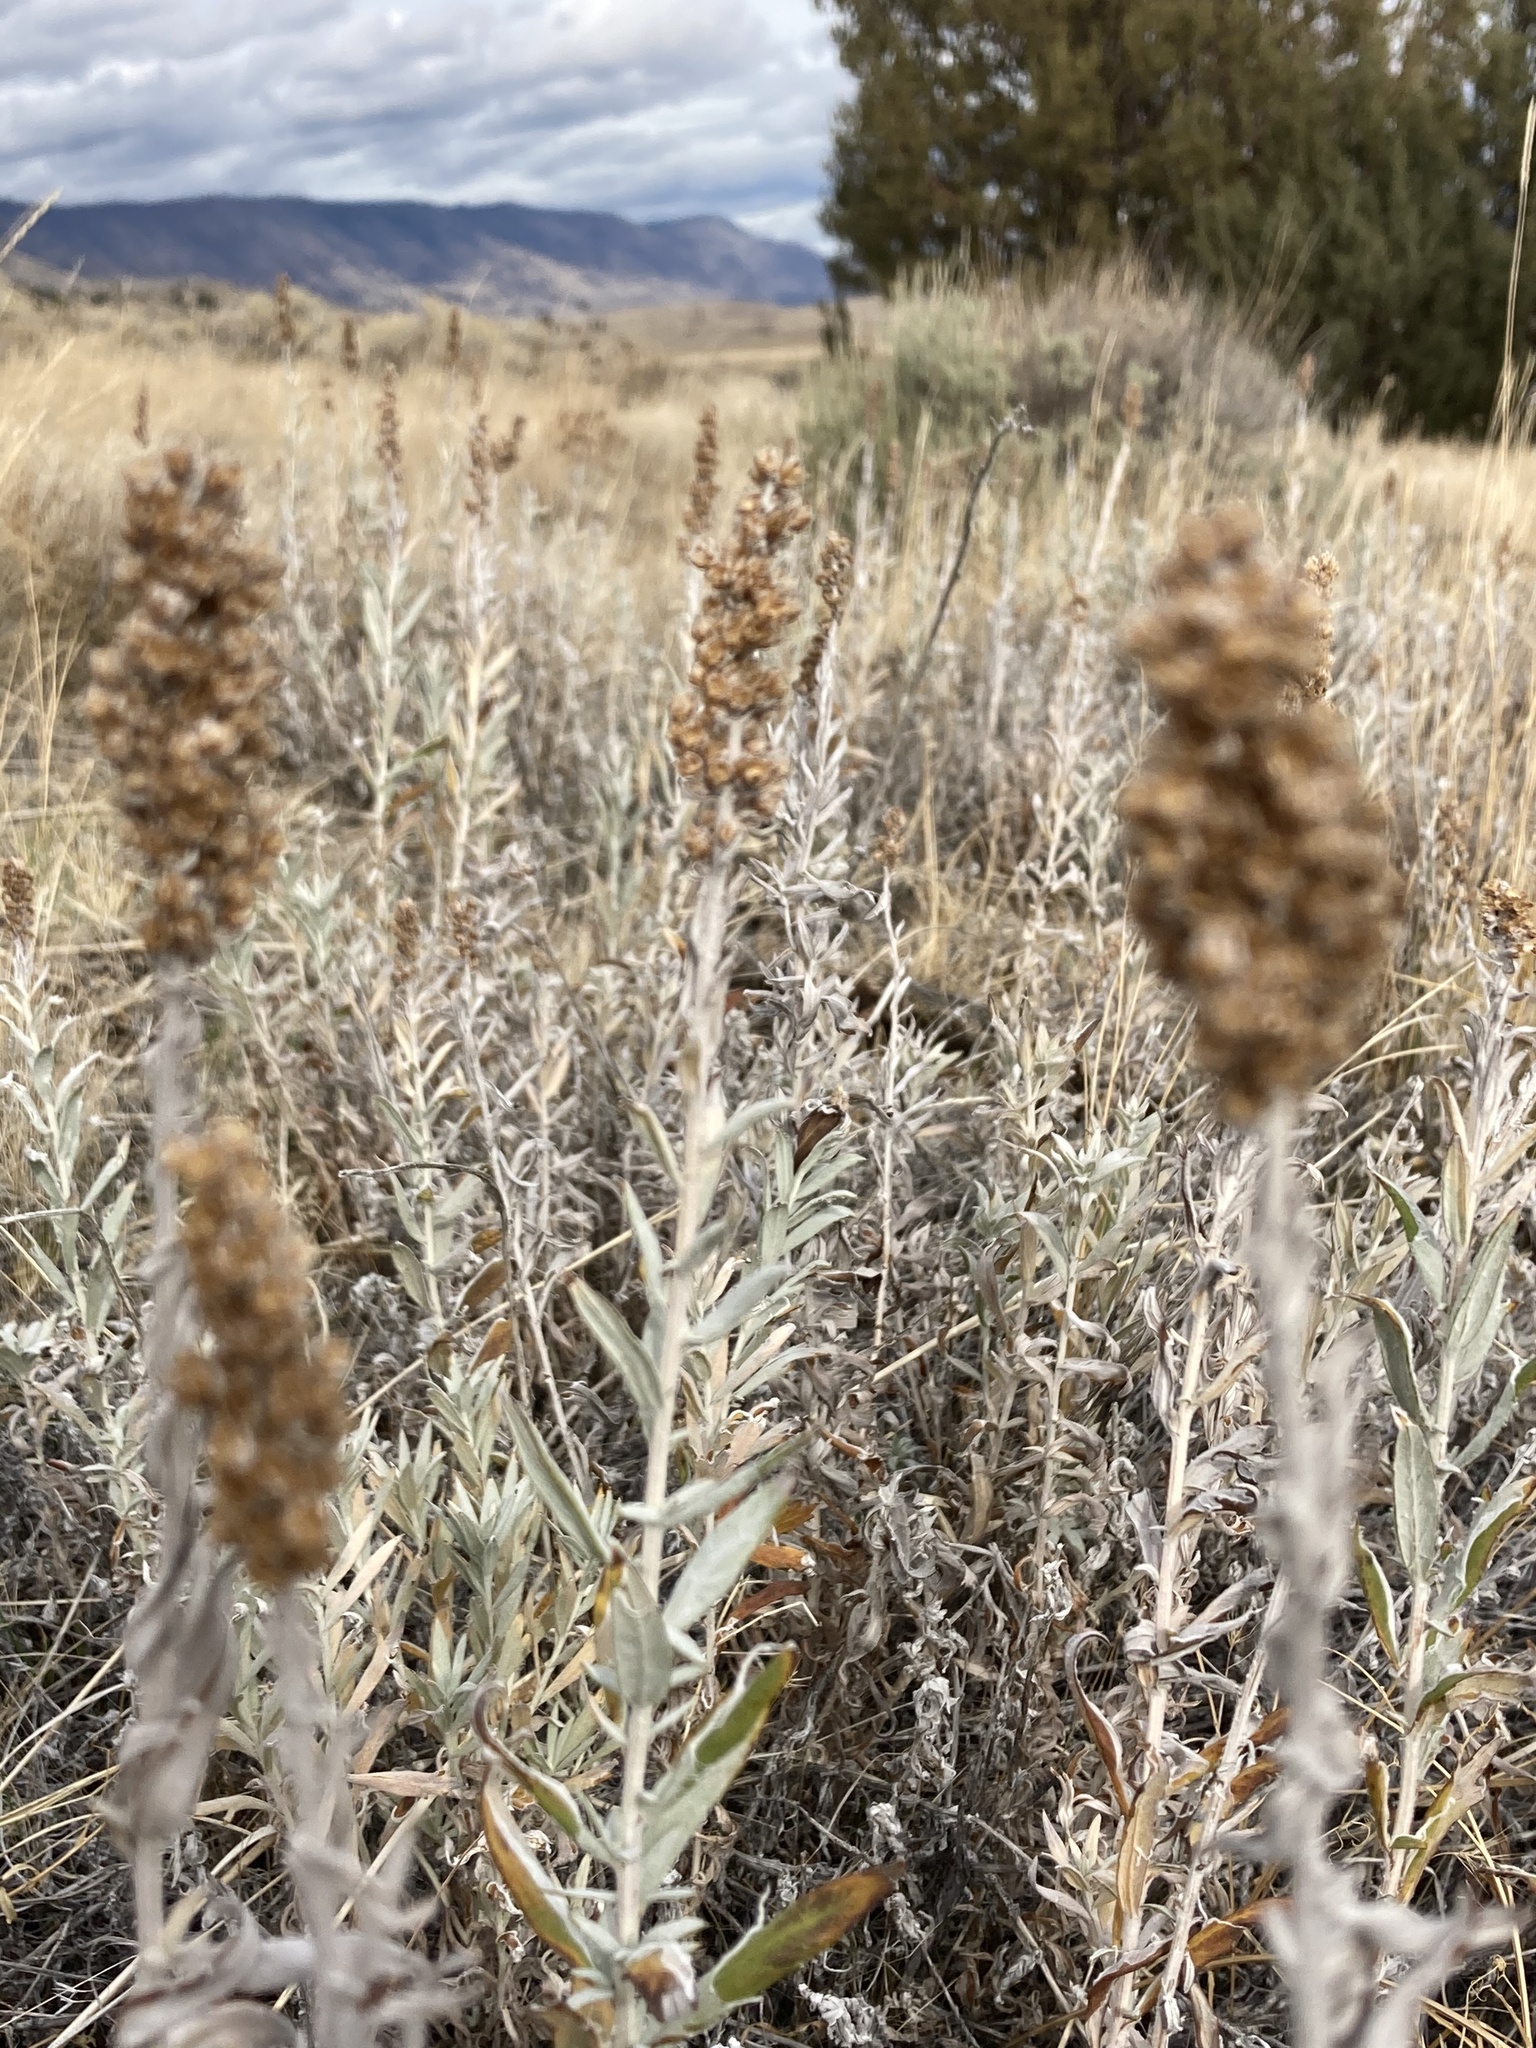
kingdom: Plantae
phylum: Tracheophyta
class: Magnoliopsida
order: Asterales
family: Asteraceae
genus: Artemisia
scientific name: Artemisia ludoviciana
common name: Western mugwort
